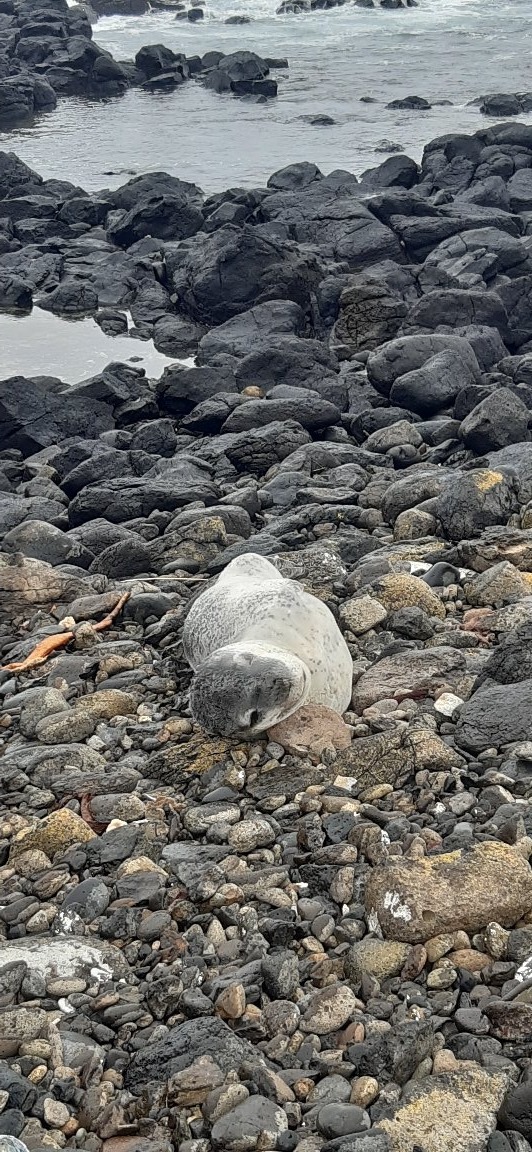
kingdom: Animalia
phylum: Chordata
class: Mammalia
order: Carnivora
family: Phocidae
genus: Hydrurga
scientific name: Hydrurga leptonyx
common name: Leopard seal
